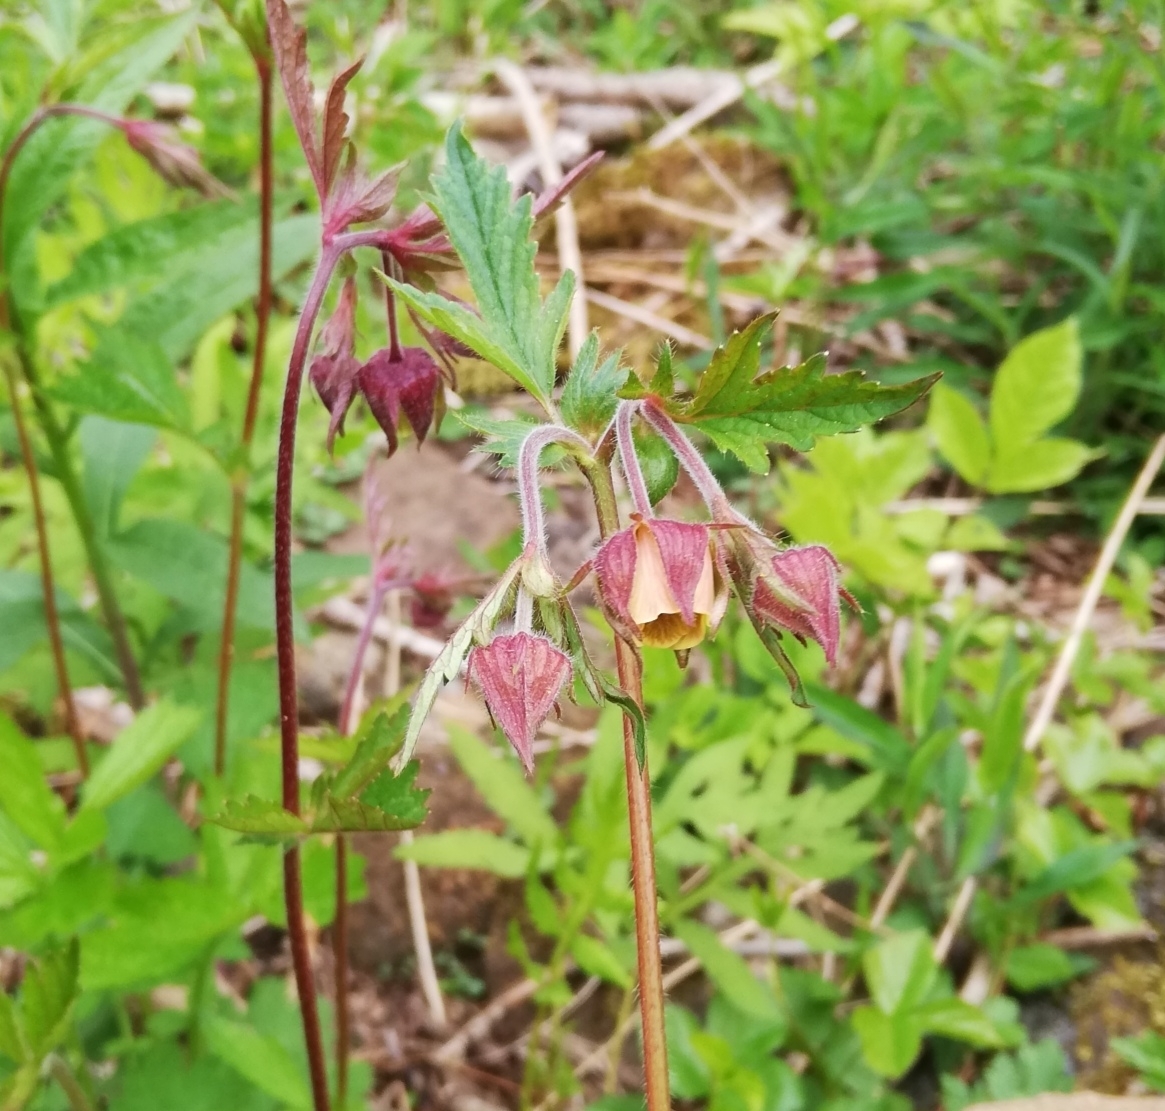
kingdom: Plantae
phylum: Tracheophyta
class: Magnoliopsida
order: Rosales
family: Rosaceae
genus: Geum
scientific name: Geum rivale
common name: Water avens
